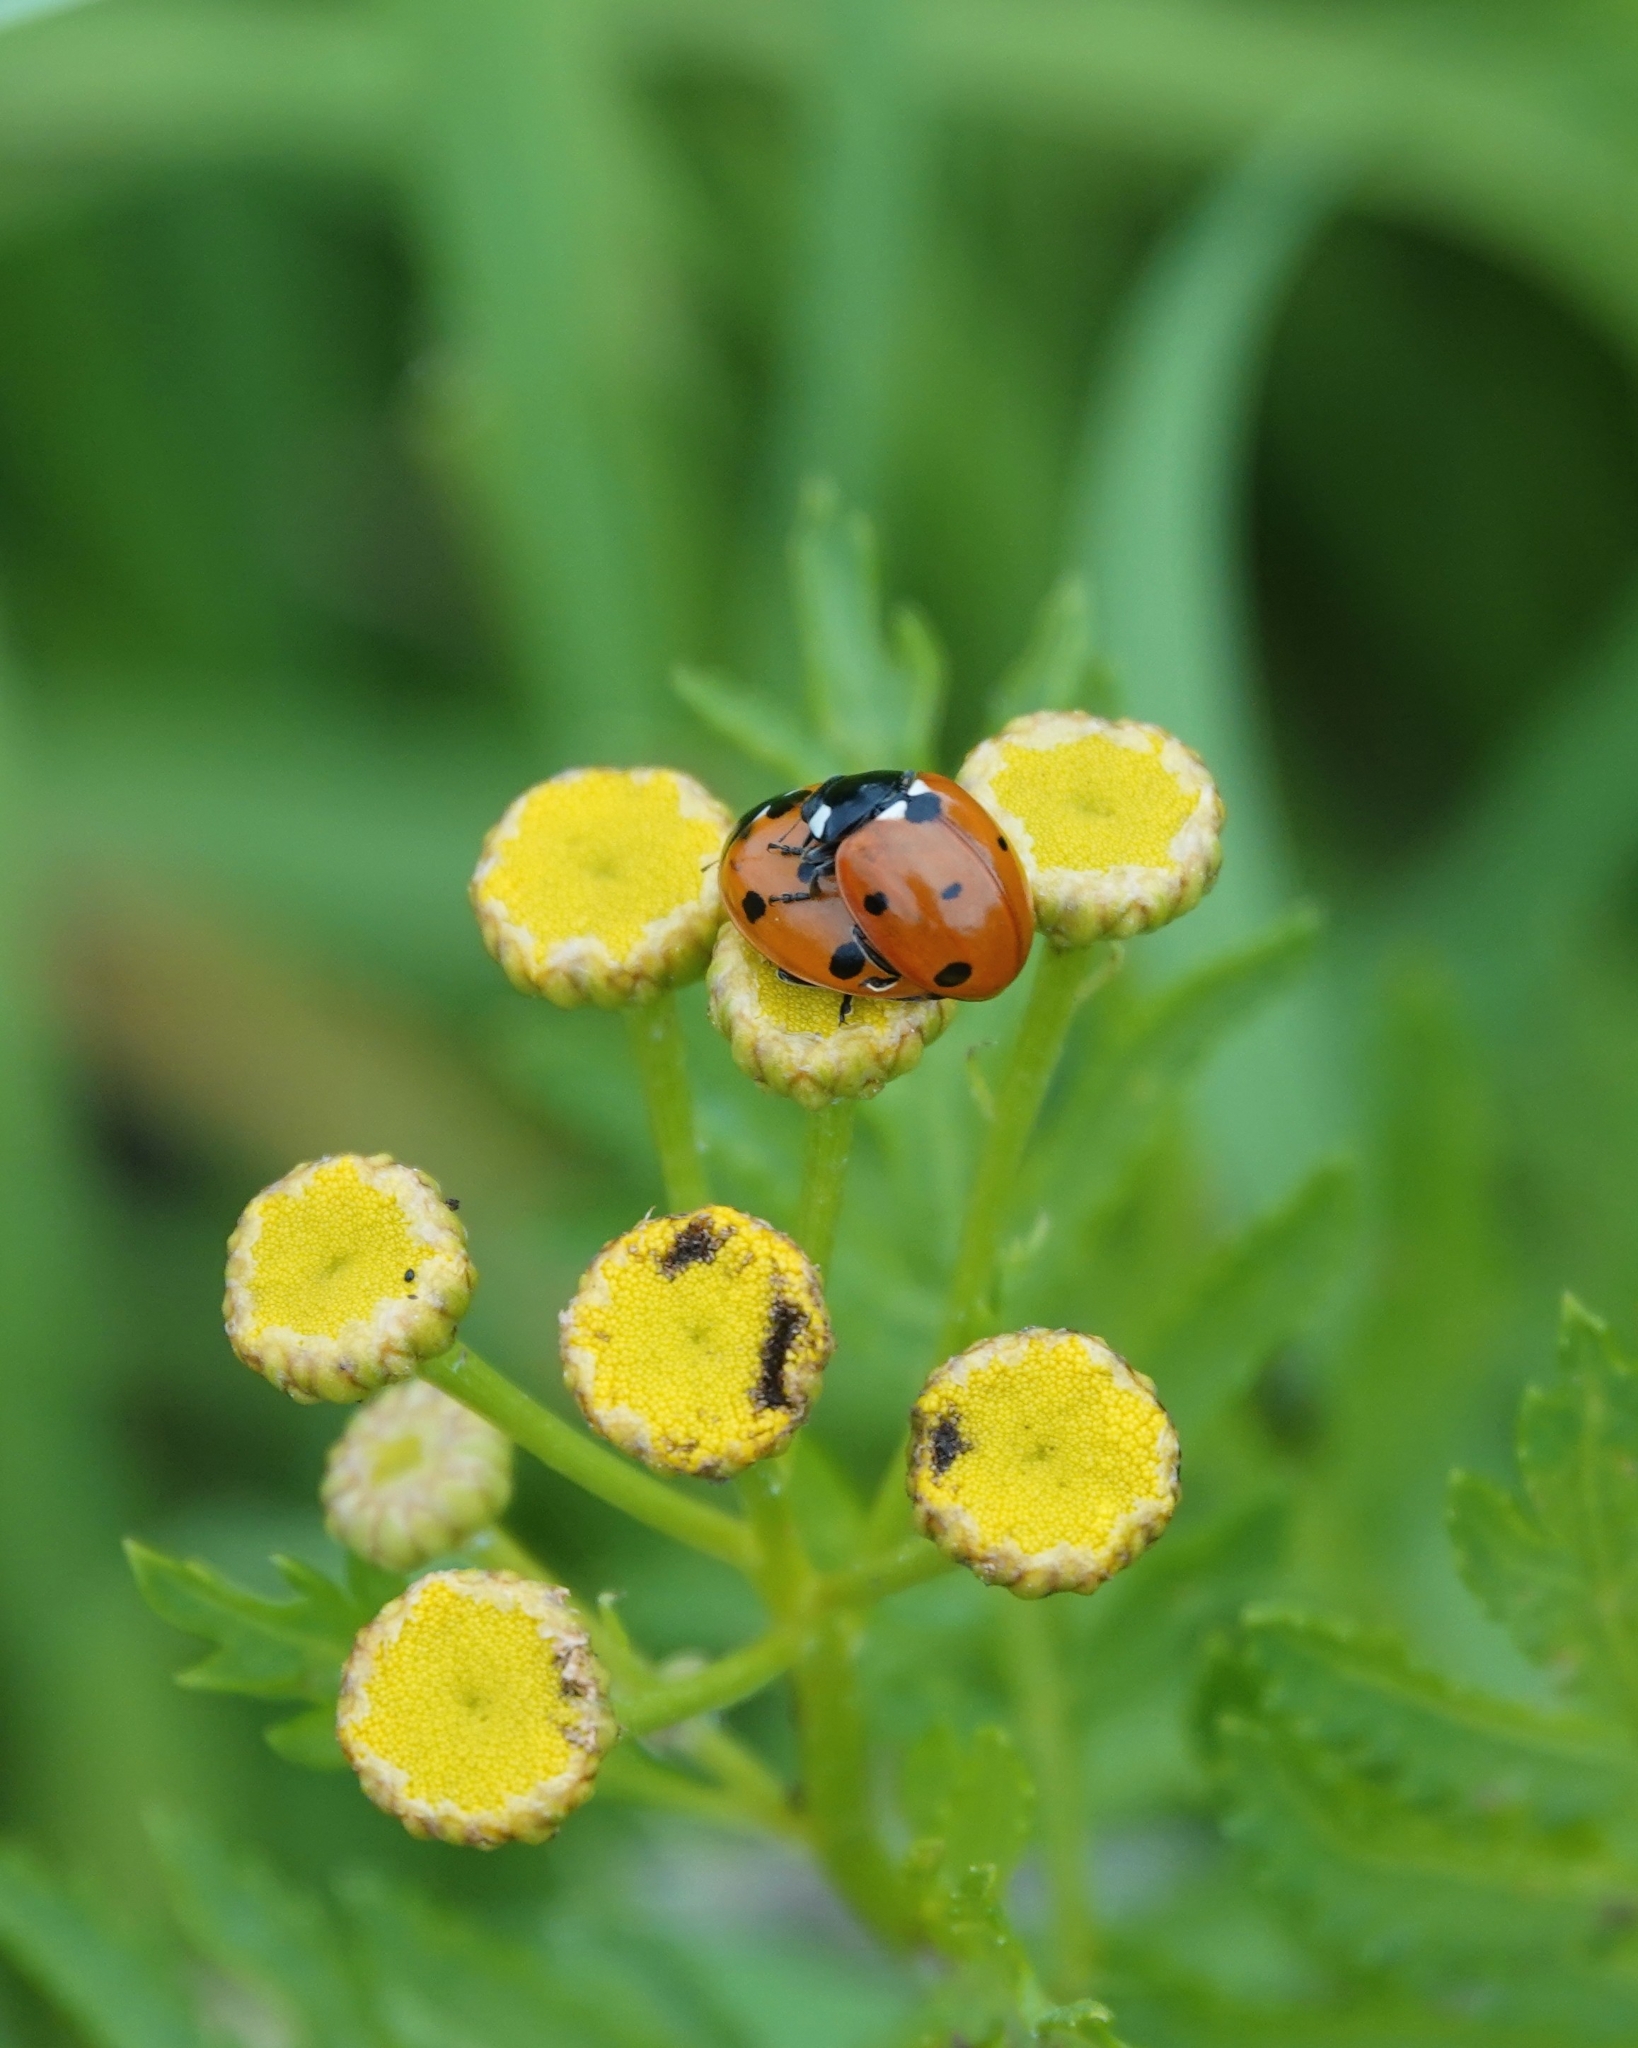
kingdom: Animalia
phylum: Arthropoda
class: Insecta
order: Coleoptera
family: Coccinellidae
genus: Coccinella
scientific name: Coccinella septempunctata
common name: Sevenspotted lady beetle
